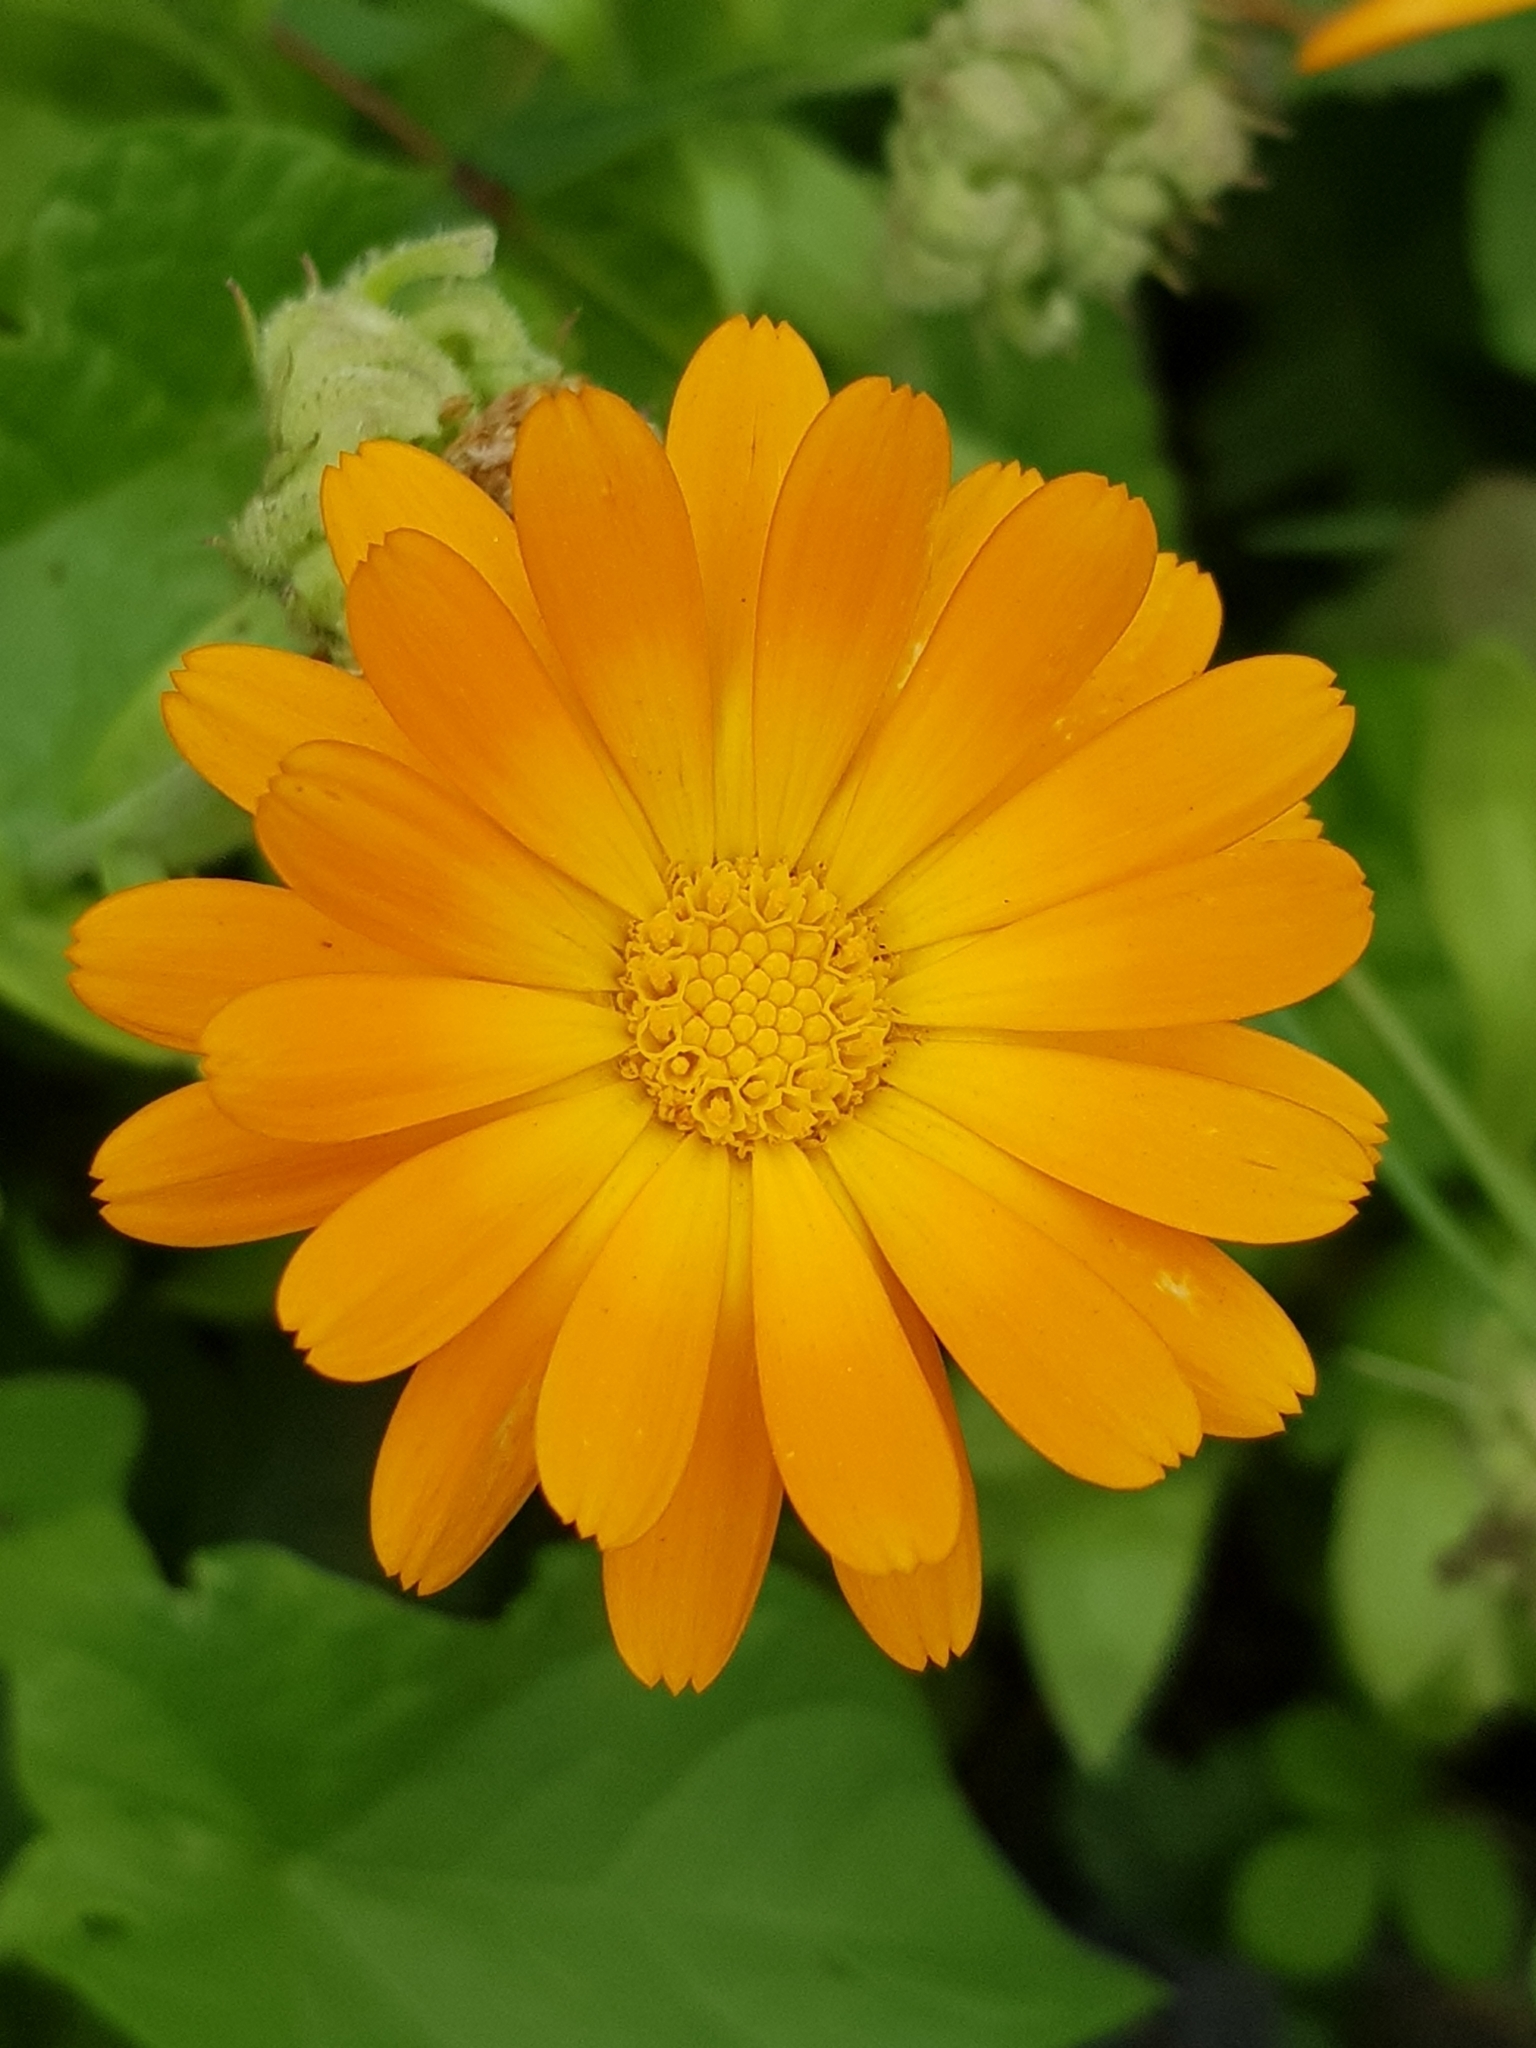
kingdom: Plantae
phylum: Tracheophyta
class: Magnoliopsida
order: Asterales
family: Asteraceae
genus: Calendula
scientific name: Calendula officinalis
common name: Pot marigold
